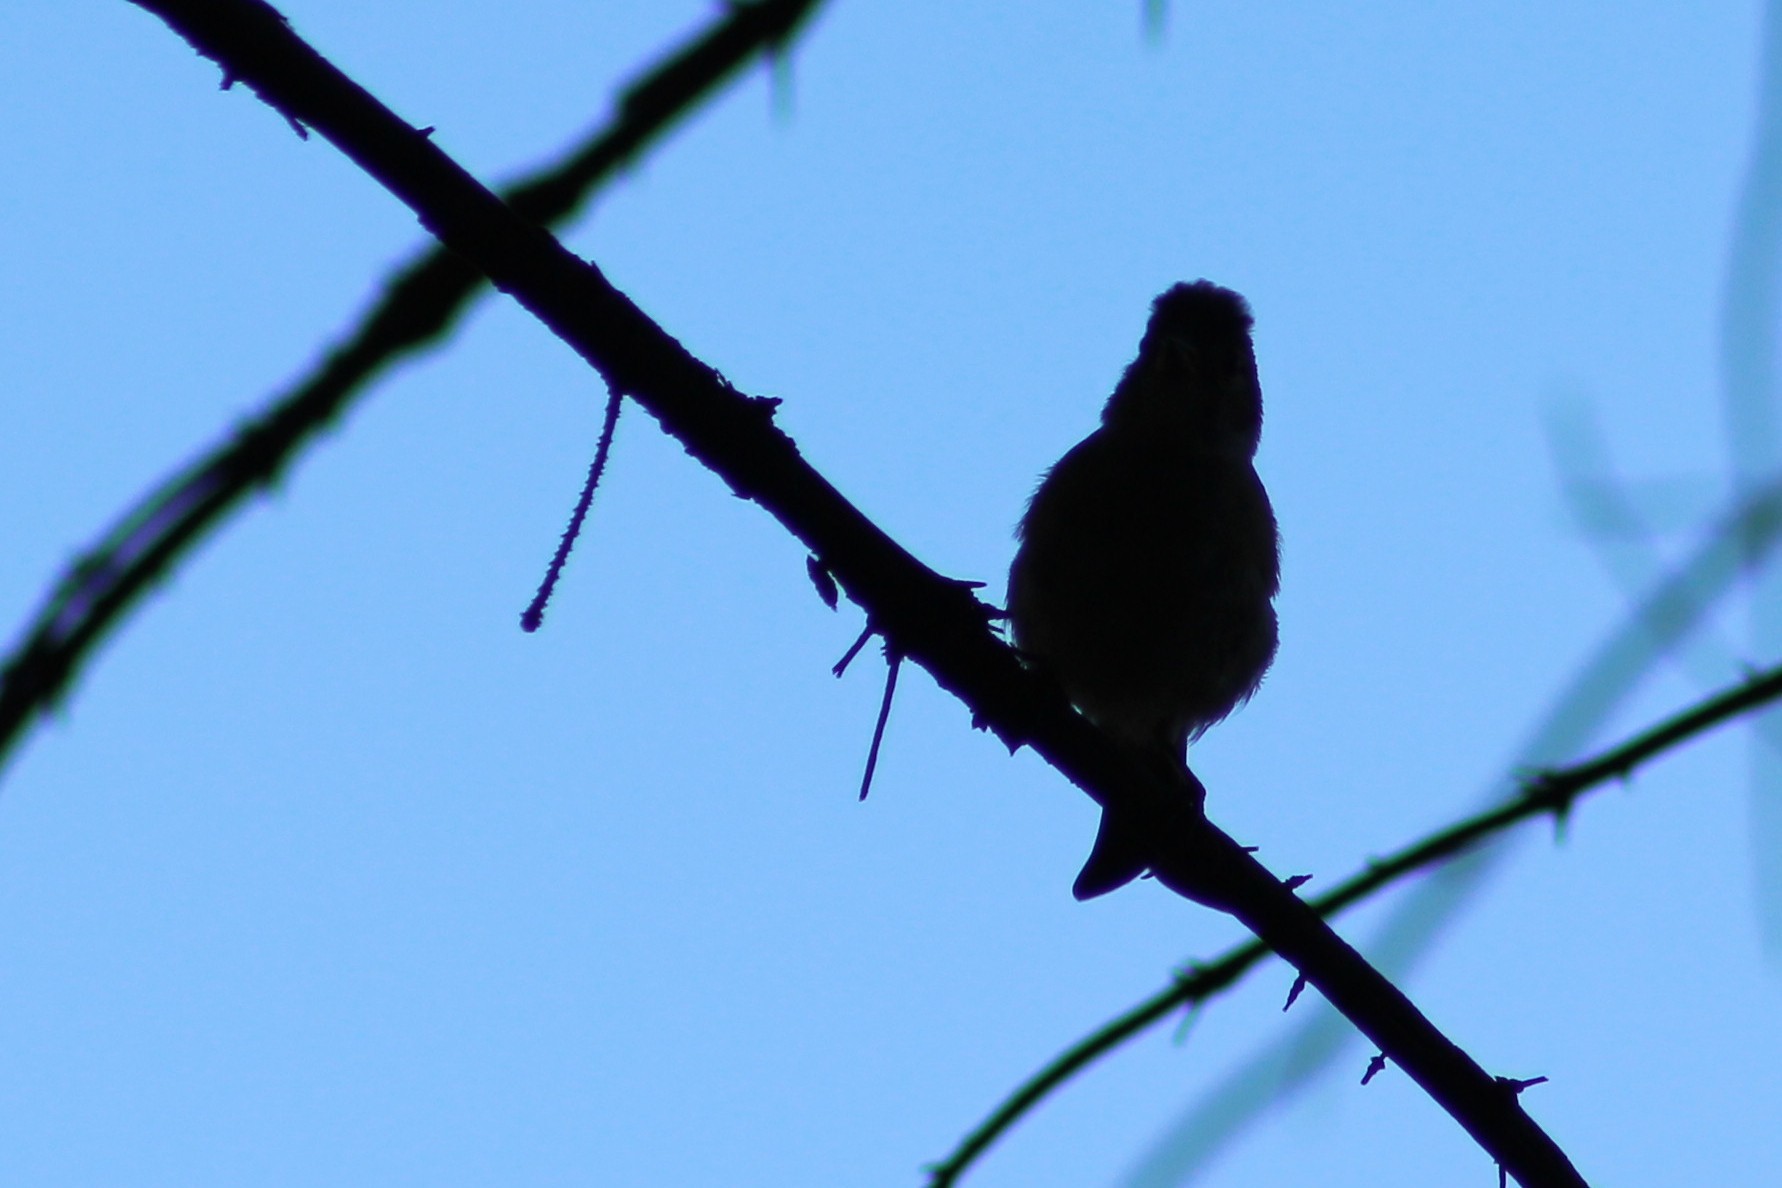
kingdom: Animalia
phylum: Chordata
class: Aves
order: Passeriformes
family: Fringillidae
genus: Fringilla
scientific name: Fringilla coelebs
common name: Common chaffinch
